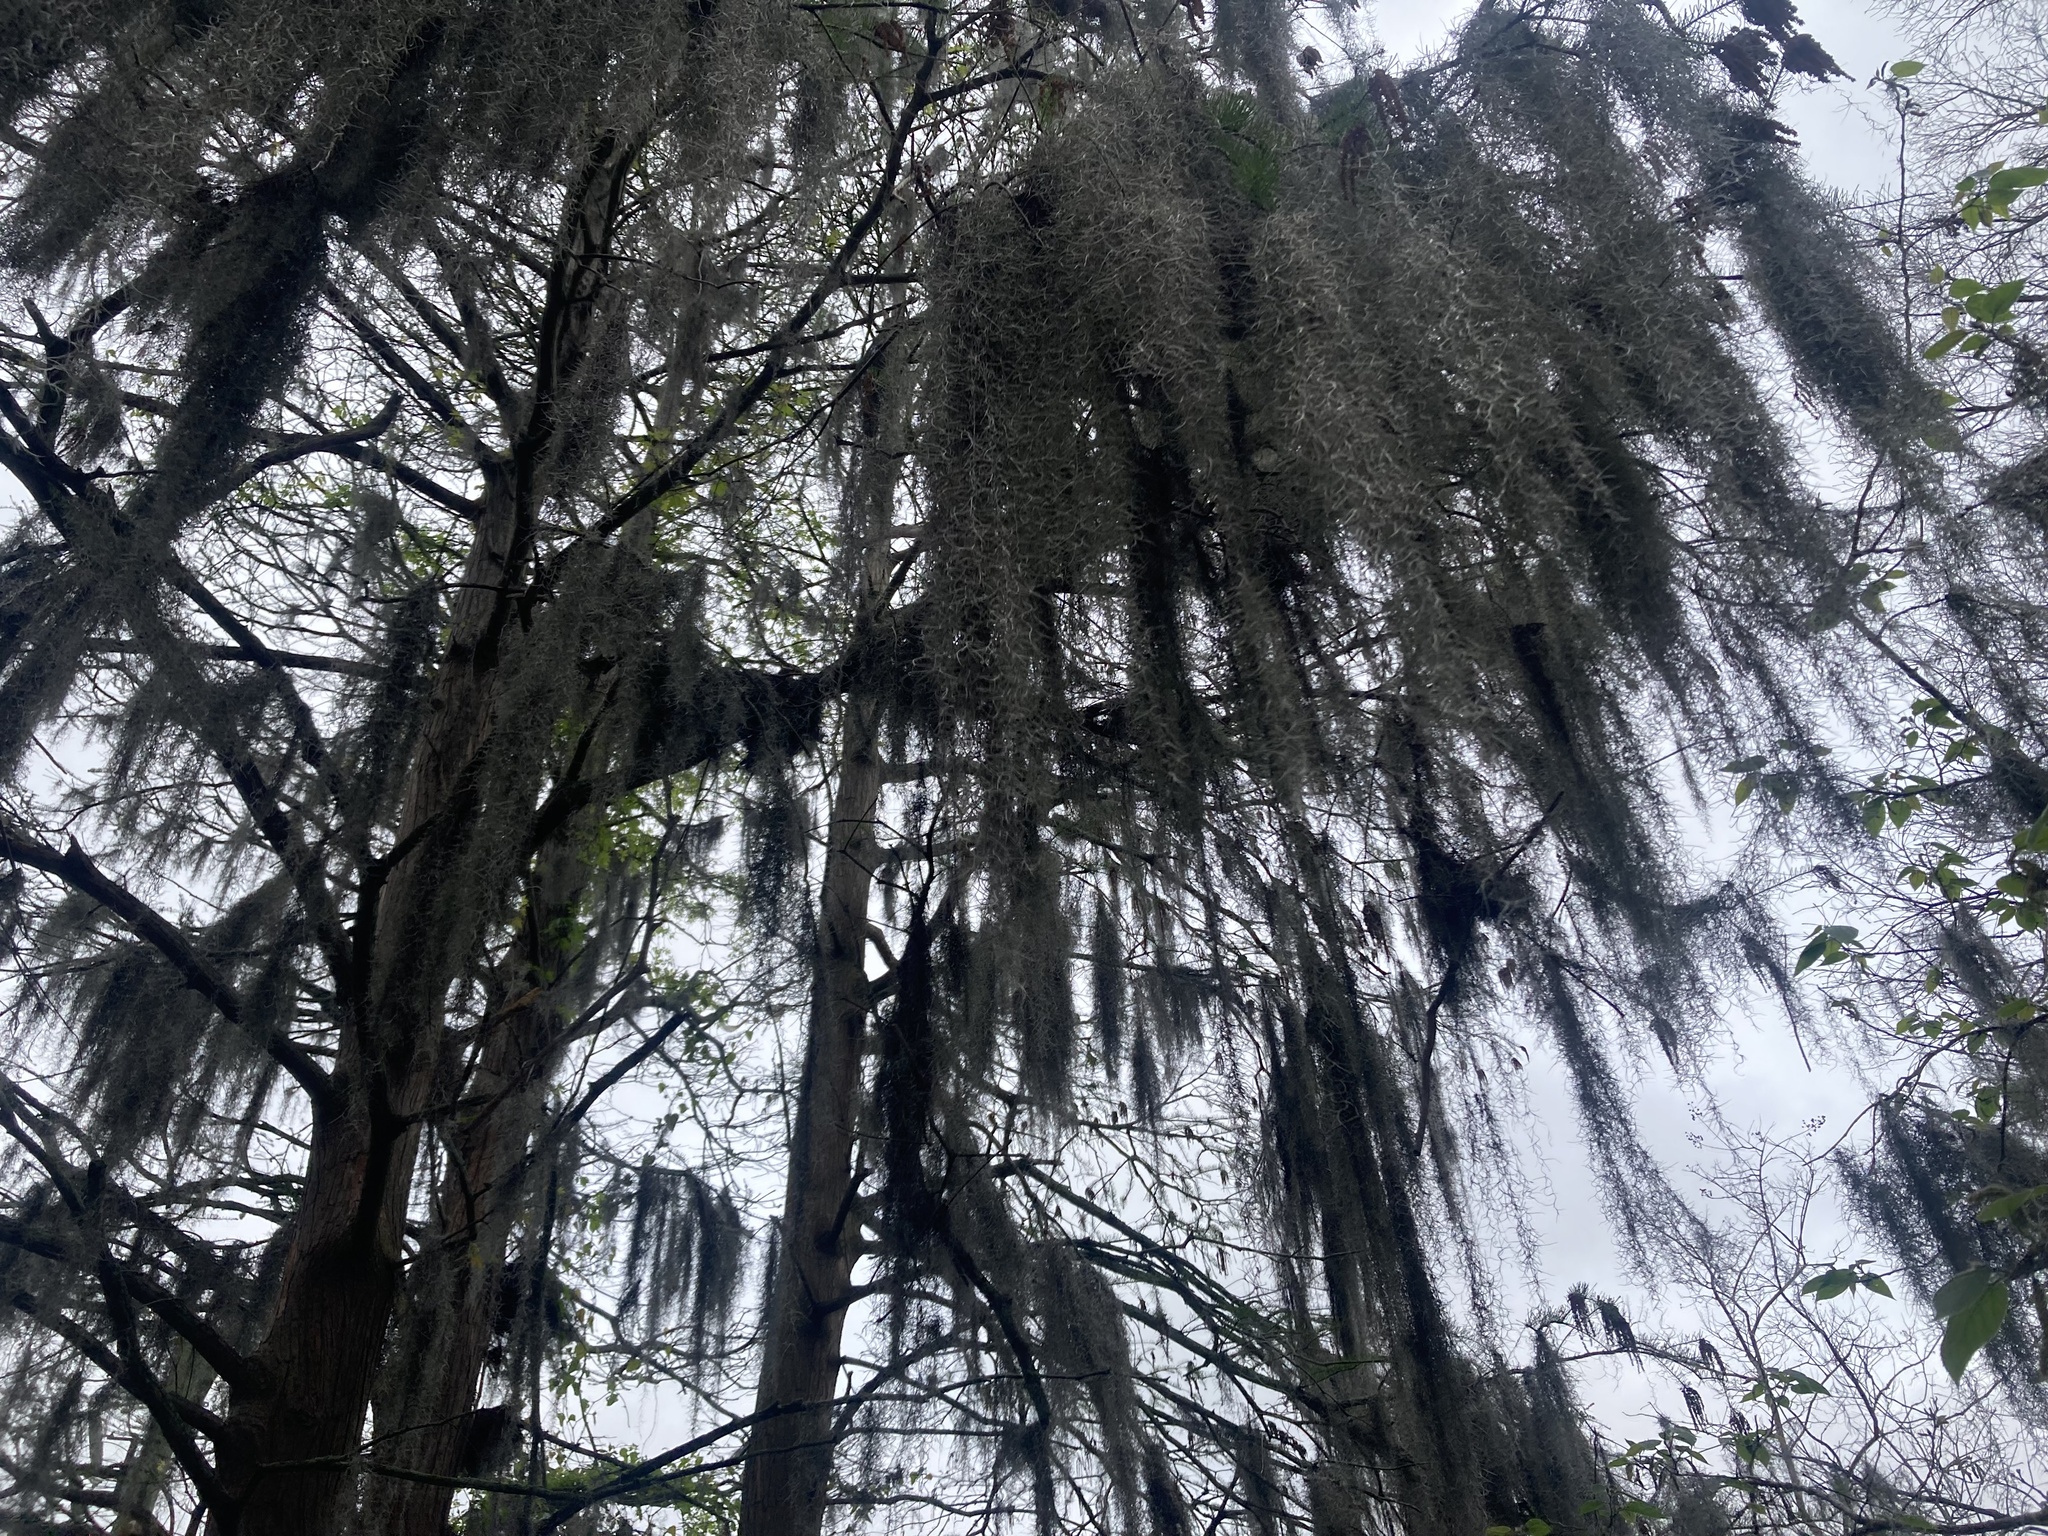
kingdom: Plantae
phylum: Tracheophyta
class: Liliopsida
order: Poales
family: Bromeliaceae
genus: Tillandsia
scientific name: Tillandsia usneoides
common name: Spanish moss
